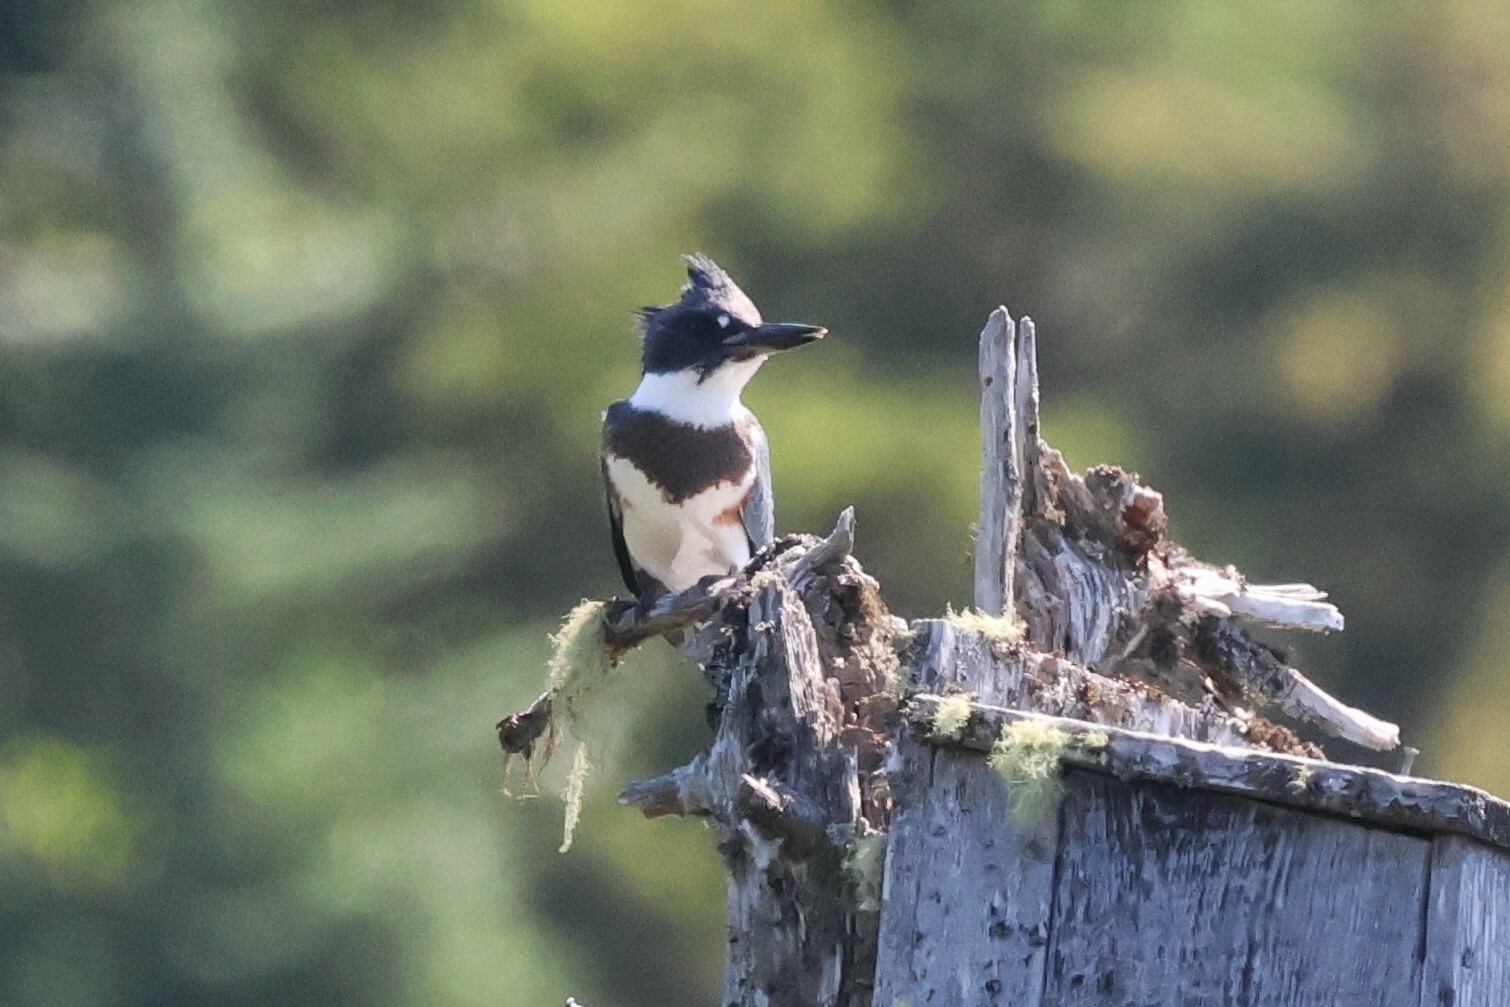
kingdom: Animalia
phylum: Chordata
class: Aves
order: Coraciiformes
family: Alcedinidae
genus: Megaceryle
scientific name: Megaceryle alcyon
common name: Belted kingfisher
